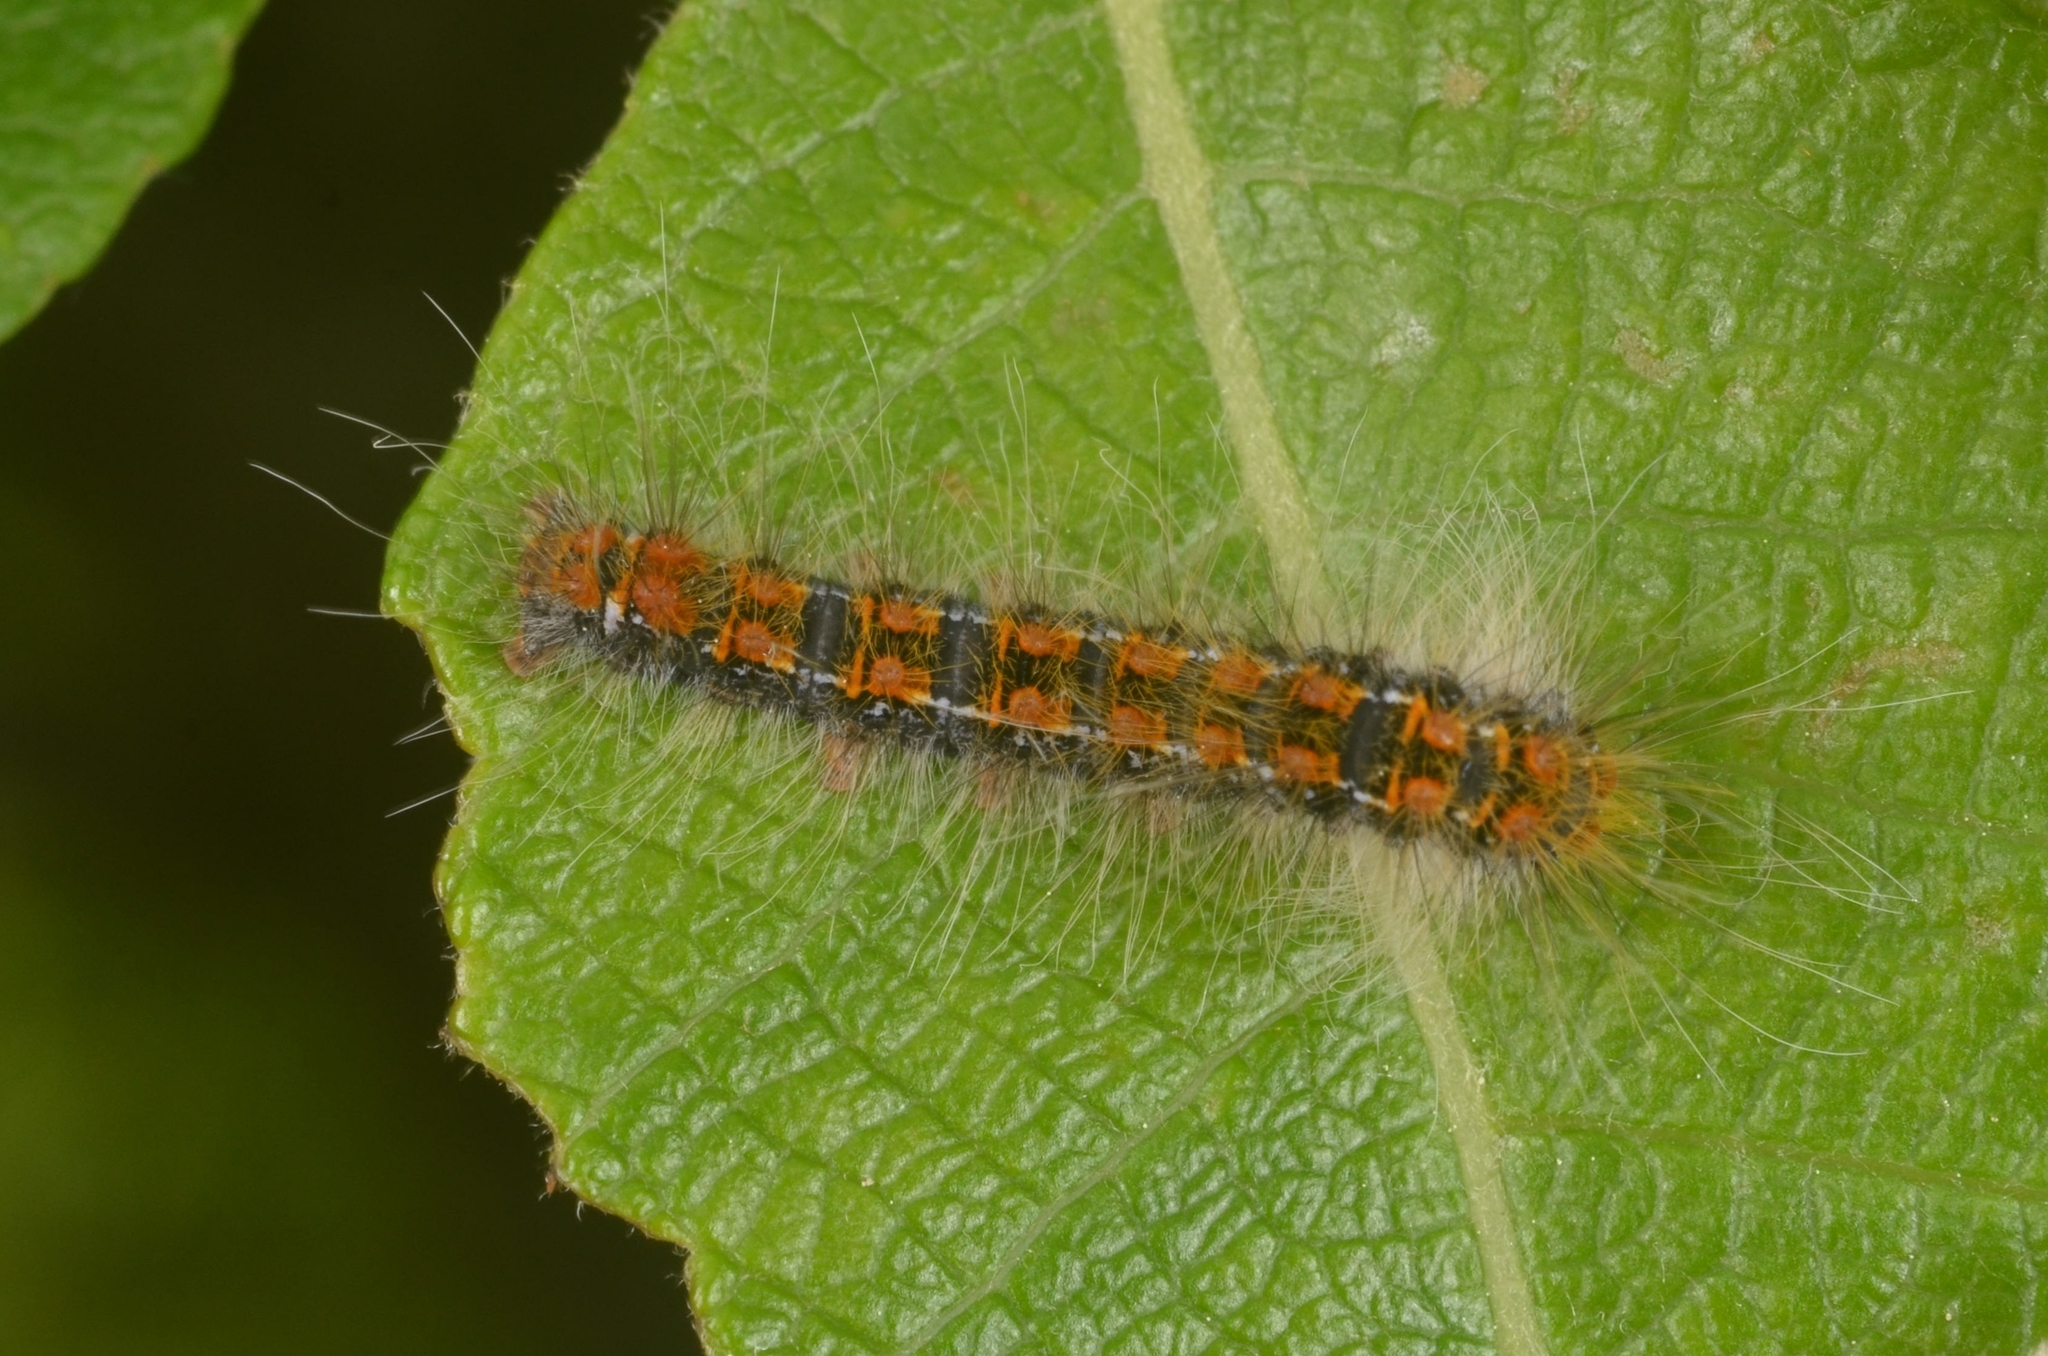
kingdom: Animalia
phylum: Arthropoda
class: Insecta
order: Lepidoptera
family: Lasiocampidae
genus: Trichiura
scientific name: Trichiura crataegi
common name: Pale eggar
